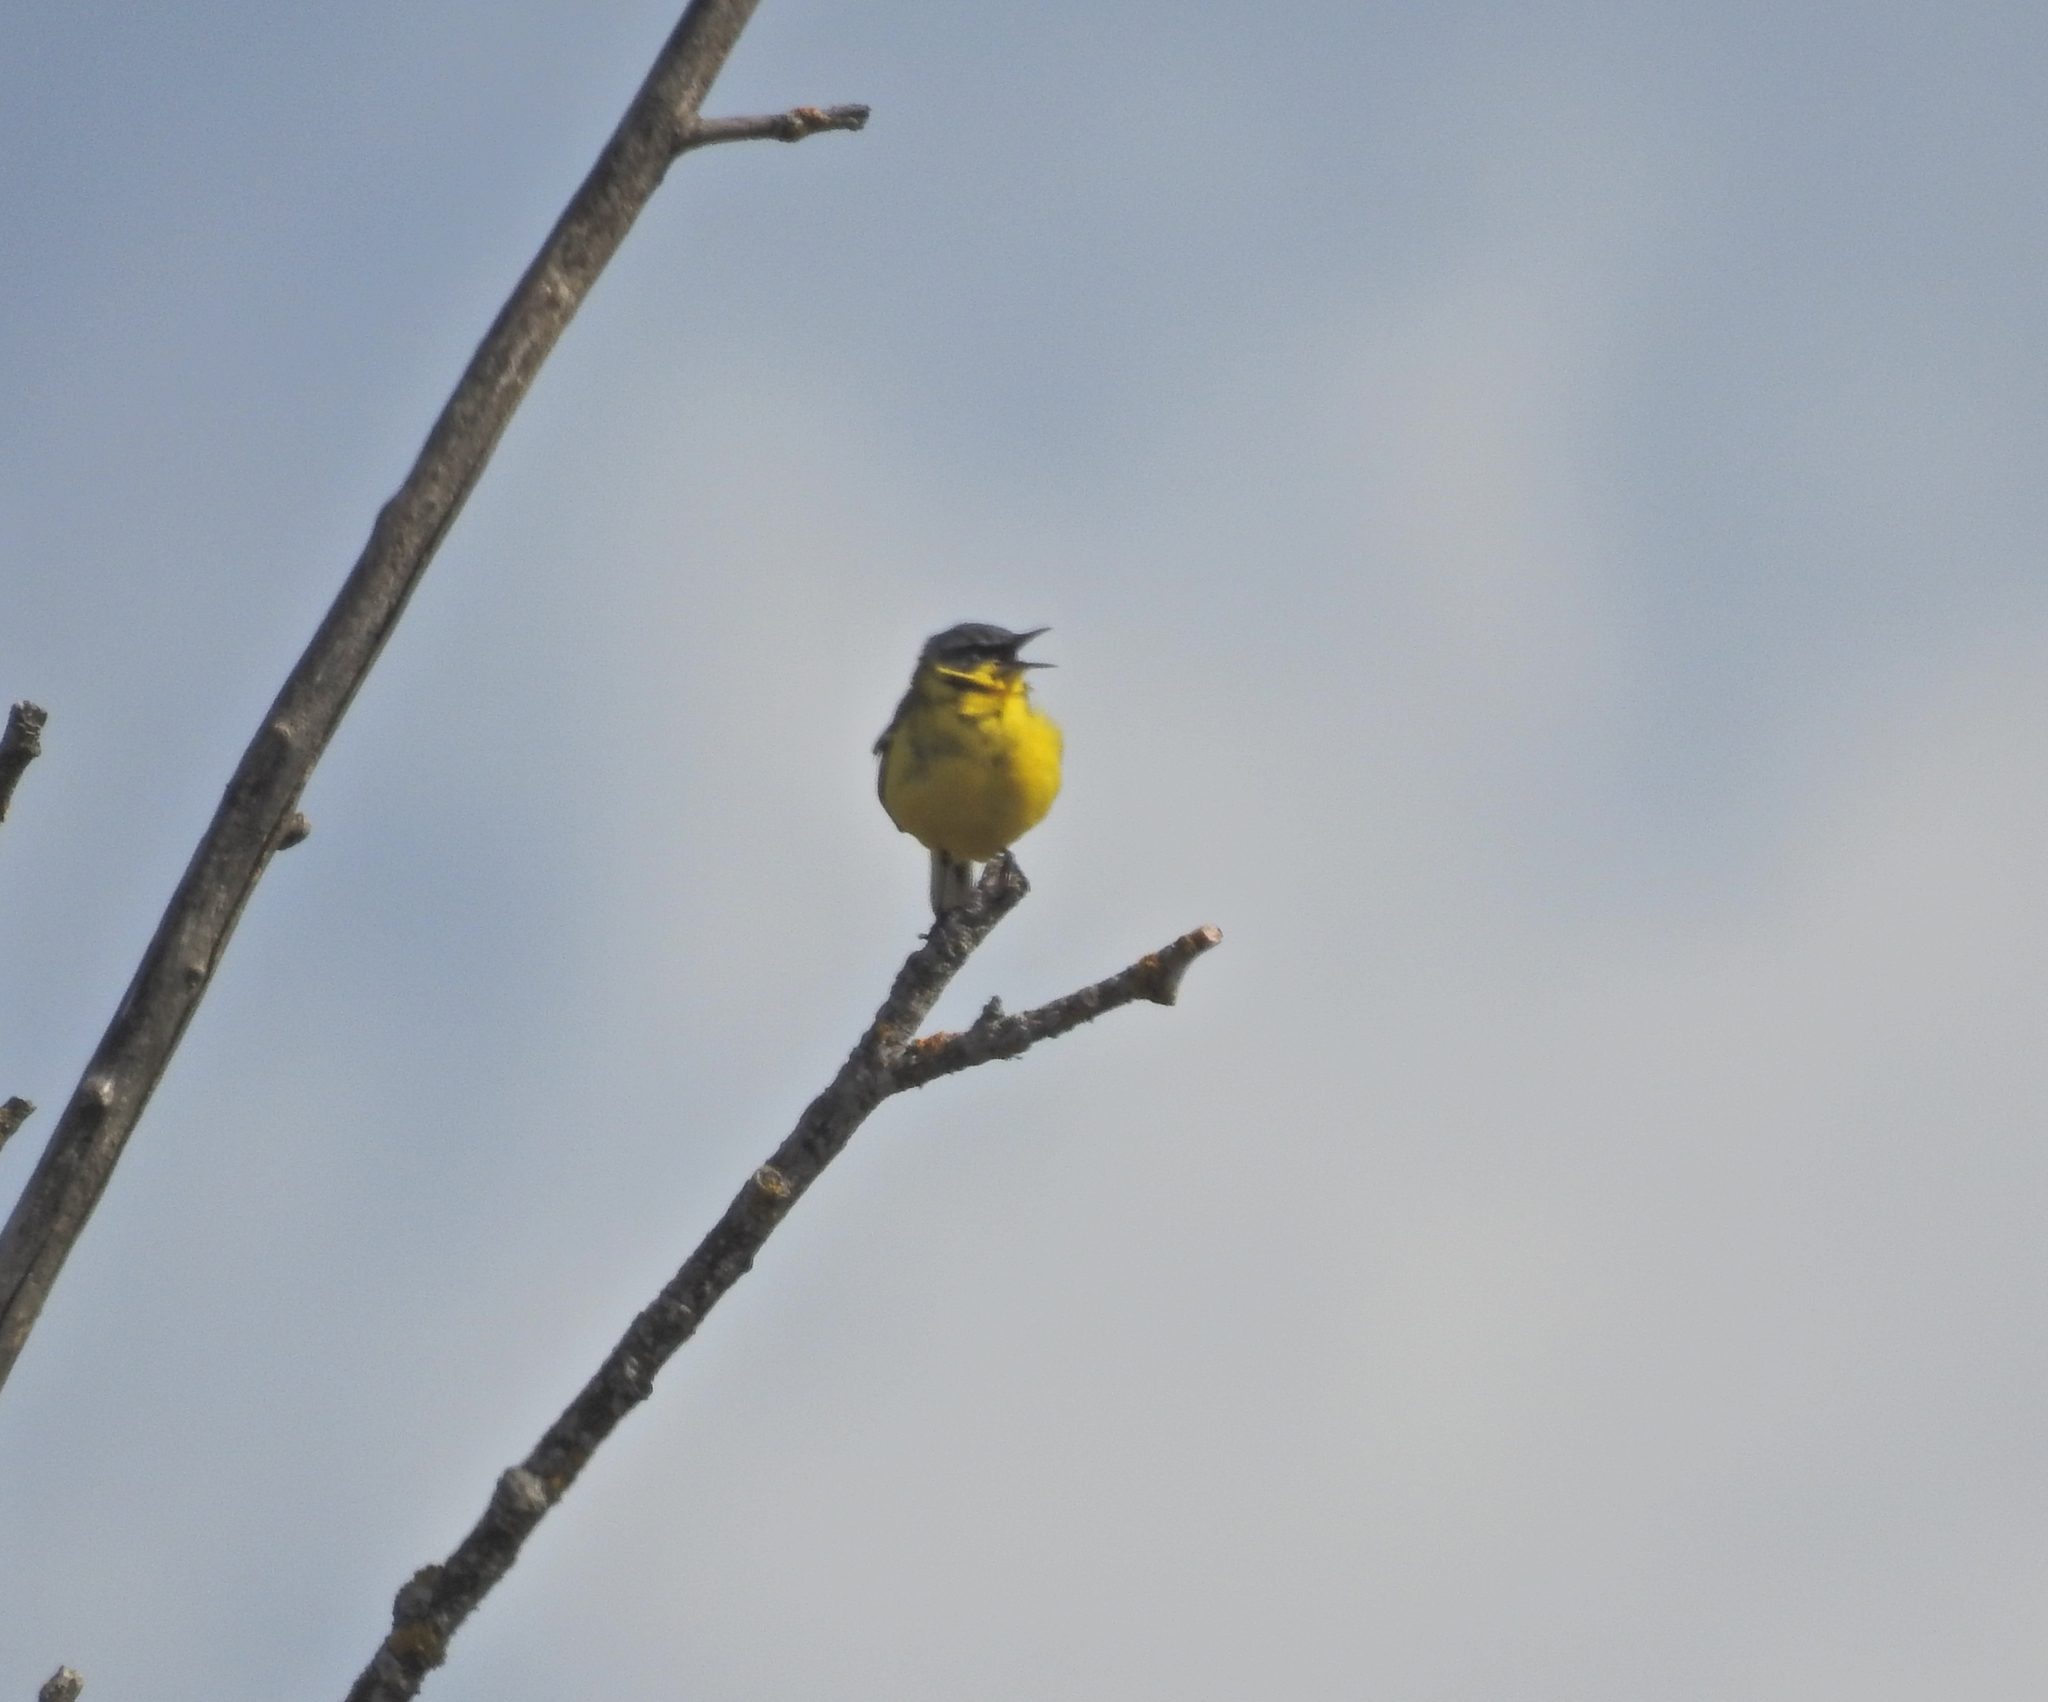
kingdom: Animalia
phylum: Chordata
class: Aves
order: Passeriformes
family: Motacillidae
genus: Motacilla
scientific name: Motacilla flava
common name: Western yellow wagtail
